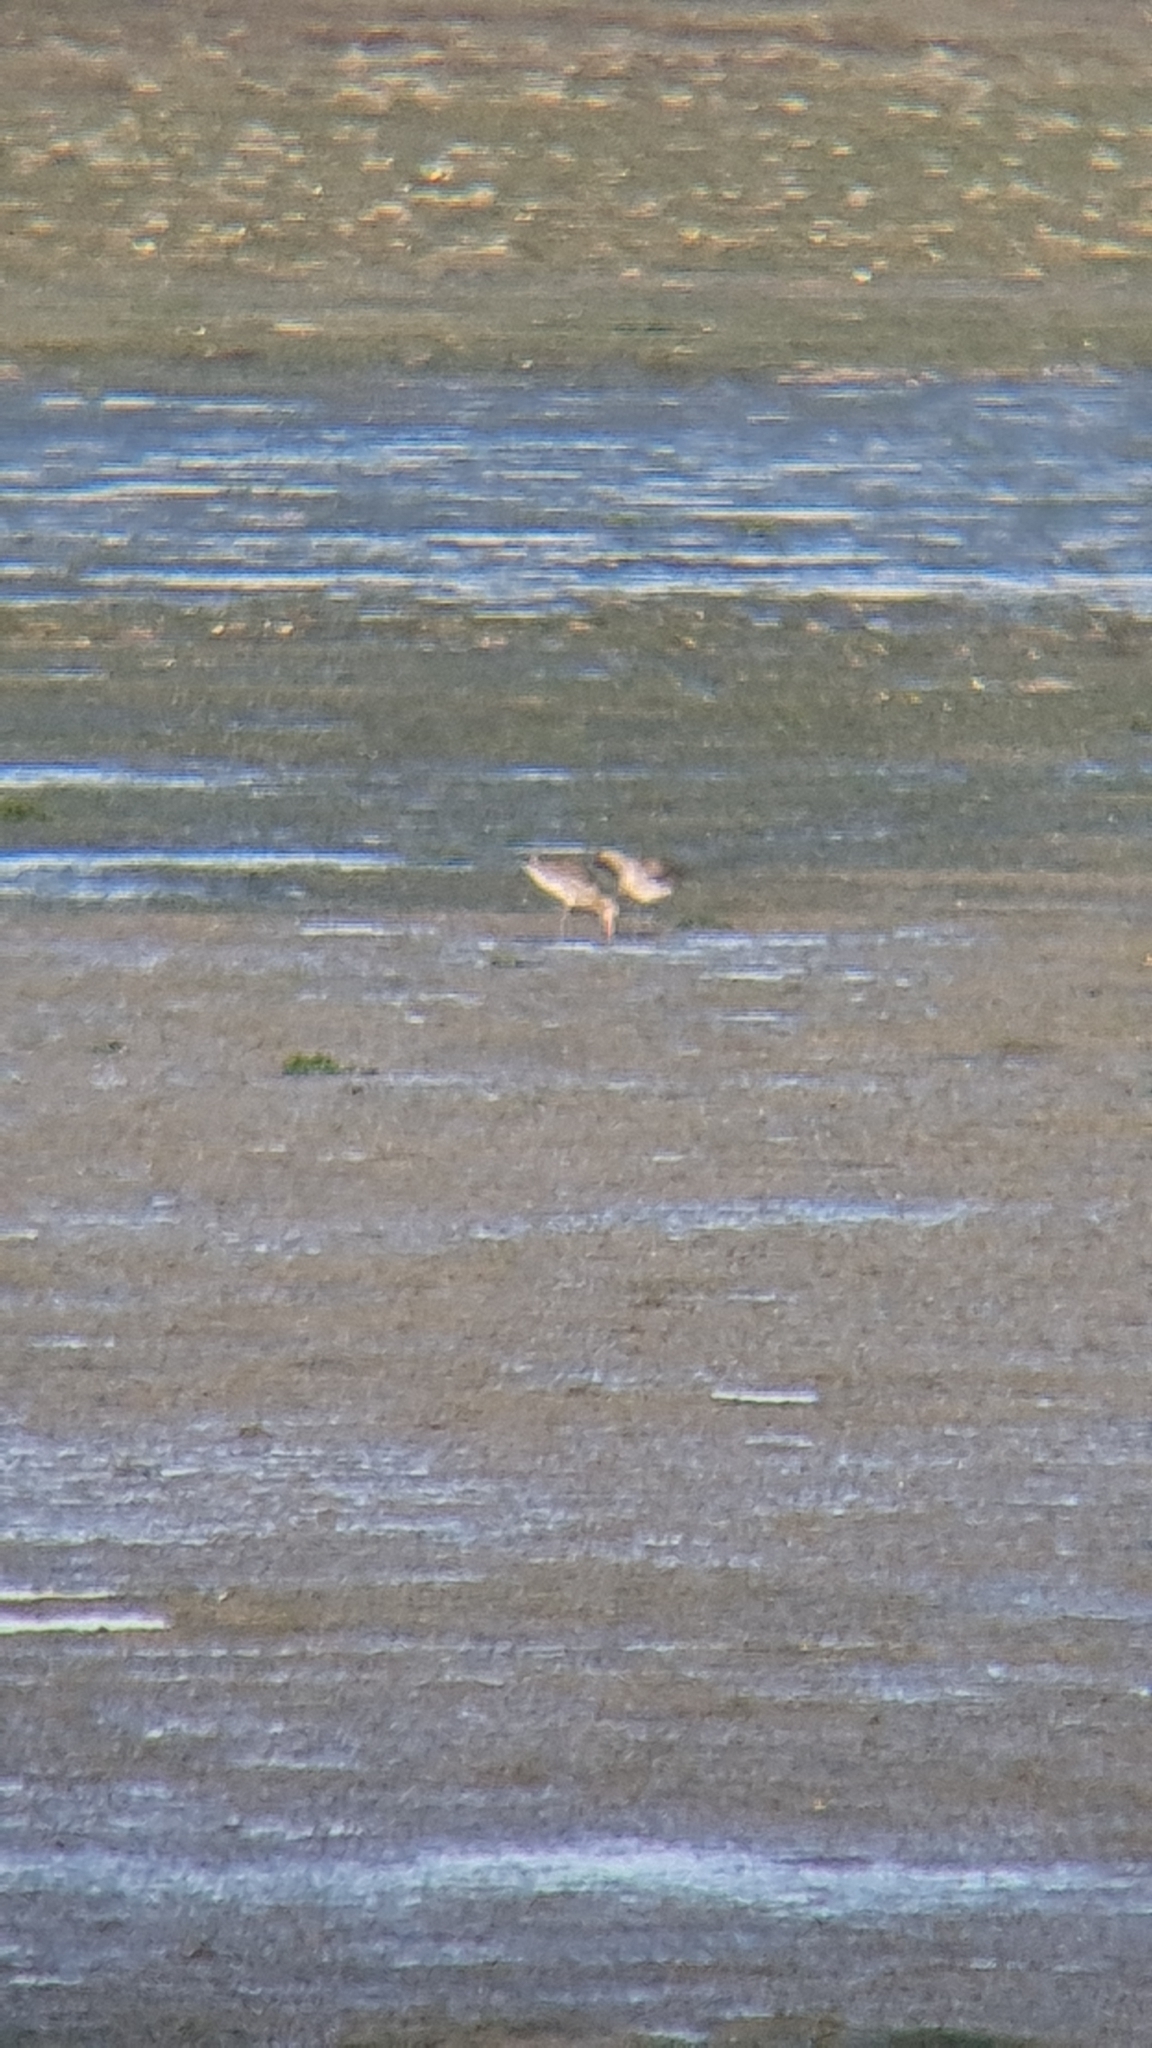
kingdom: Animalia
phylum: Chordata
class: Aves
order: Charadriiformes
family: Scolopacidae
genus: Limosa
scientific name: Limosa limosa
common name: Black-tailed godwit
